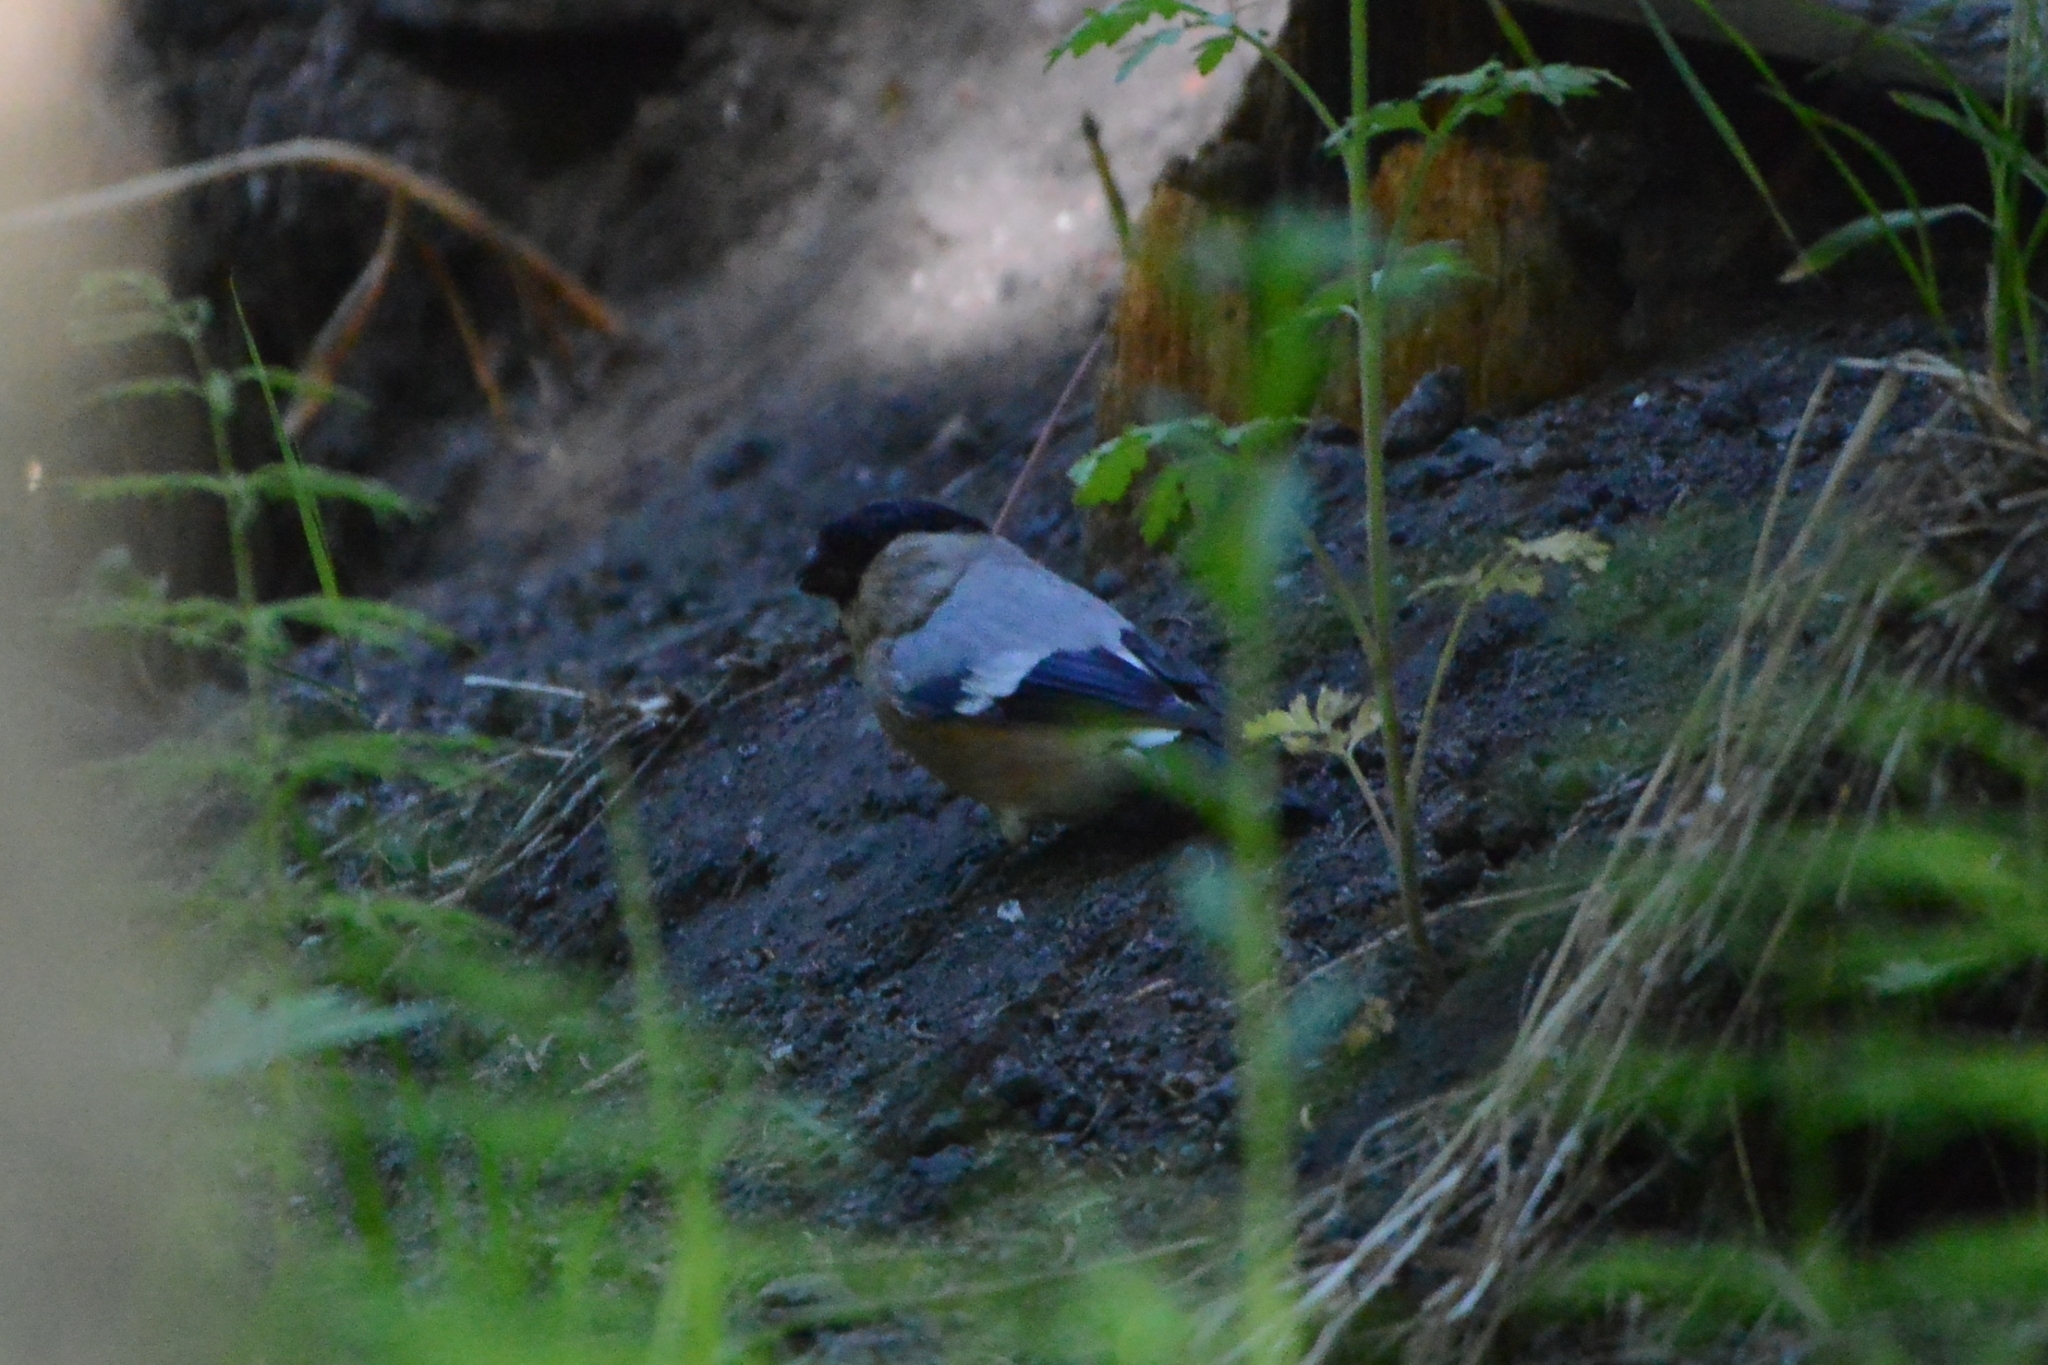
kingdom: Animalia
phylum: Chordata
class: Aves
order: Passeriformes
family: Fringillidae
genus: Pyrrhula
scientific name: Pyrrhula pyrrhula
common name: Eurasian bullfinch
